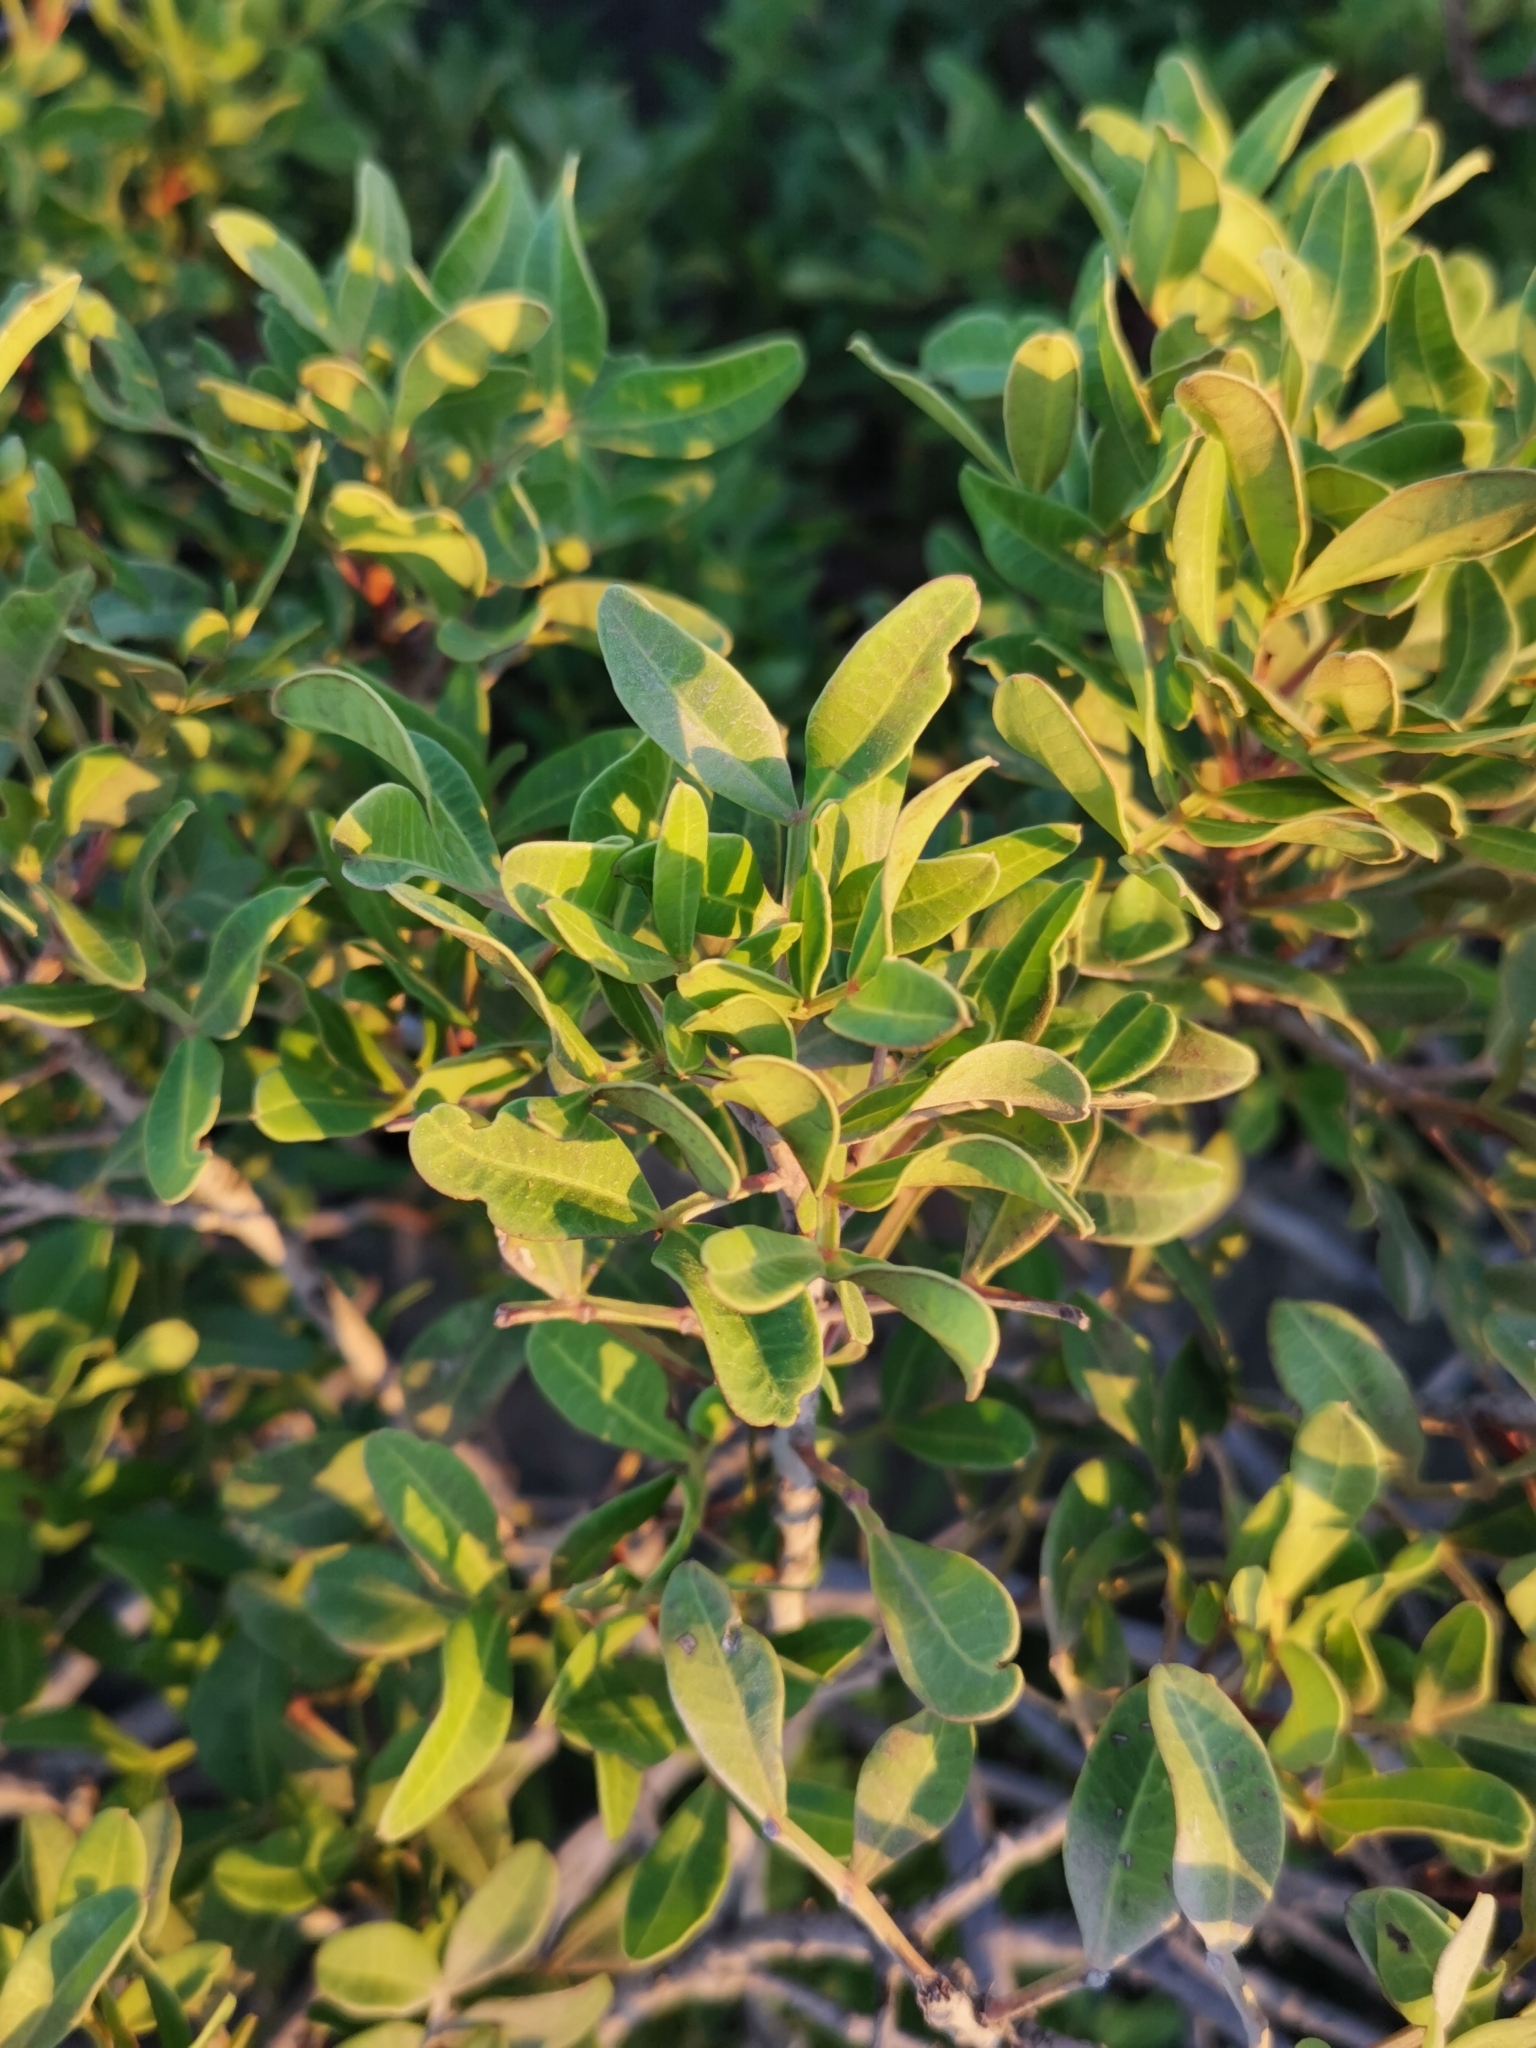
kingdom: Plantae
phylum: Tracheophyta
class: Magnoliopsida
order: Sapindales
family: Anacardiaceae
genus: Pistacia
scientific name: Pistacia lentiscus
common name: Lentisk
